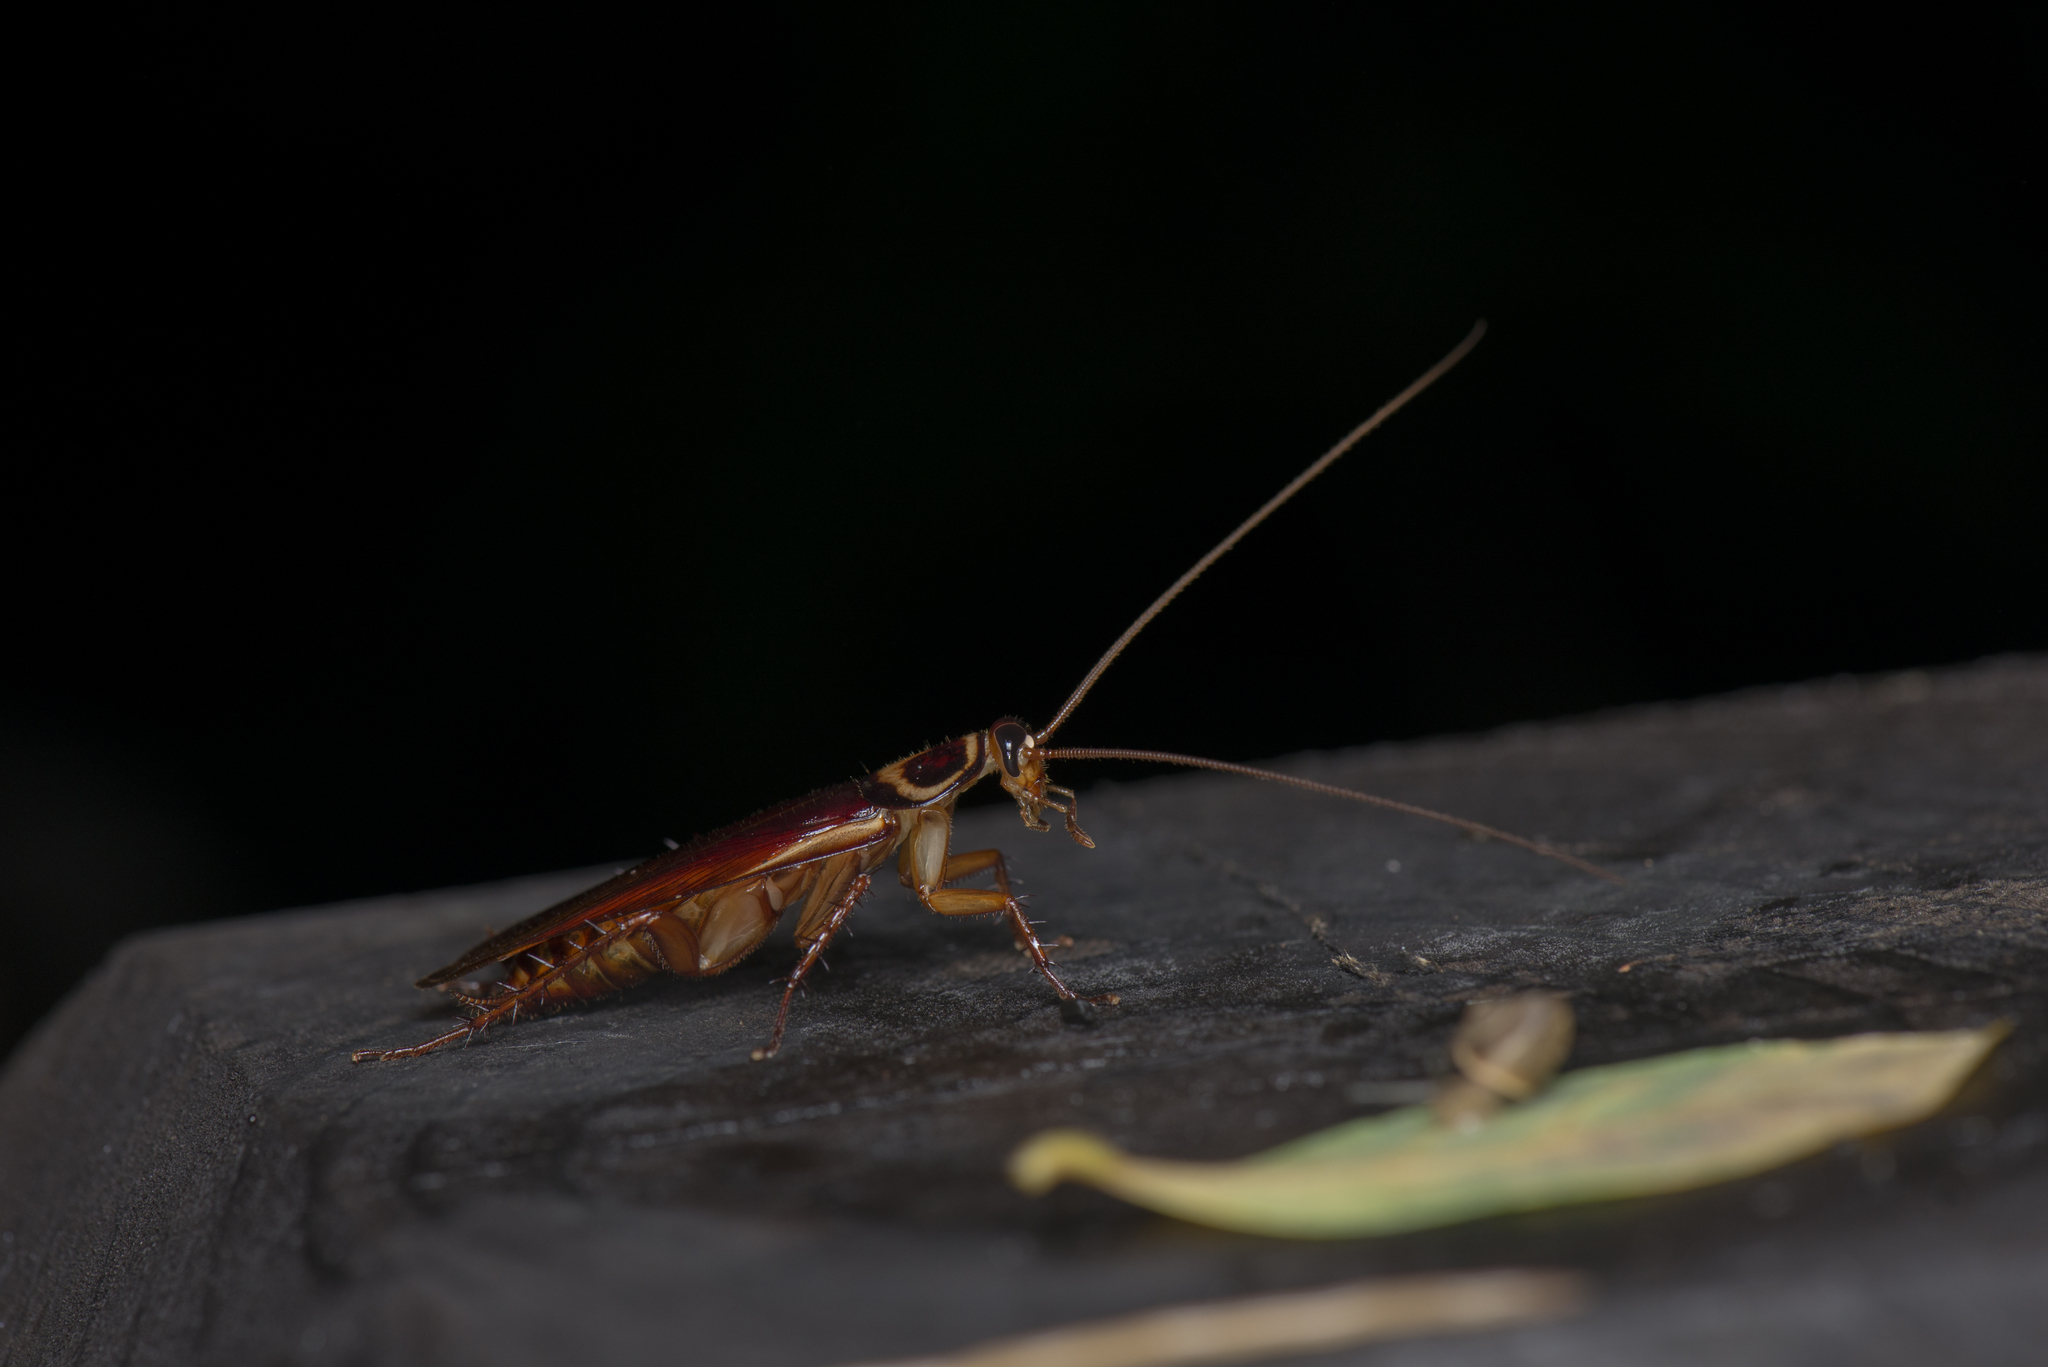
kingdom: Animalia
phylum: Arthropoda
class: Insecta
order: Blattodea
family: Blattidae
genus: Periplaneta
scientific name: Periplaneta australasiae
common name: Australian cockroach
